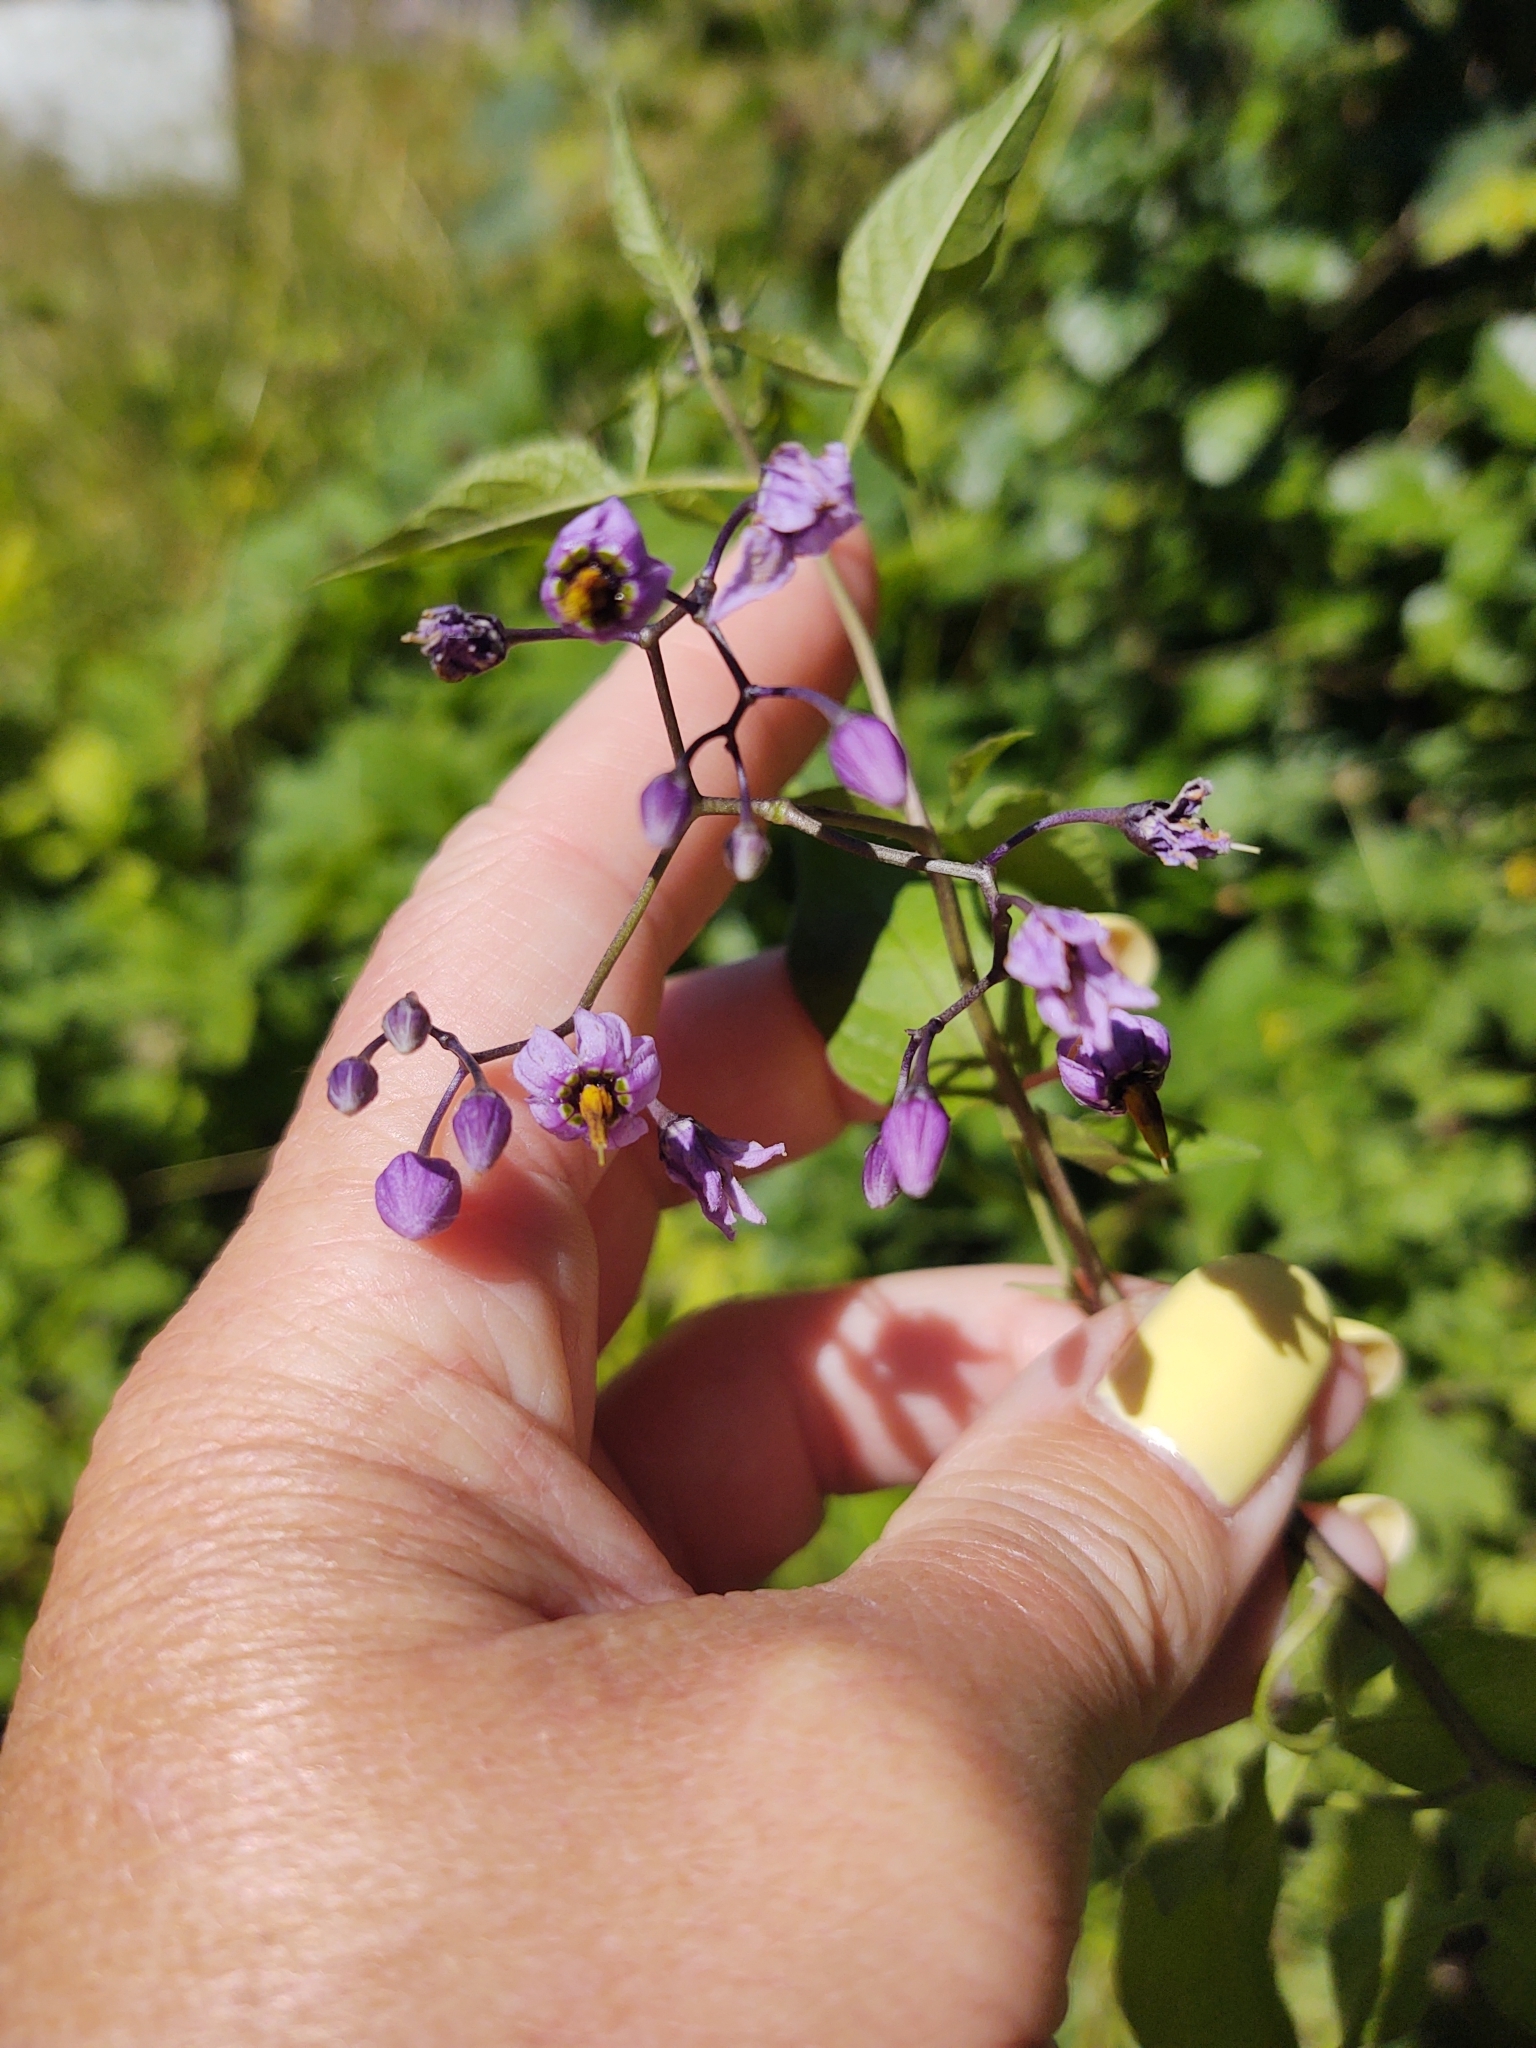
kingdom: Plantae
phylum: Tracheophyta
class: Magnoliopsida
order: Solanales
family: Solanaceae
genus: Solanum
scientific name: Solanum dulcamara
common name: Climbing nightshade
